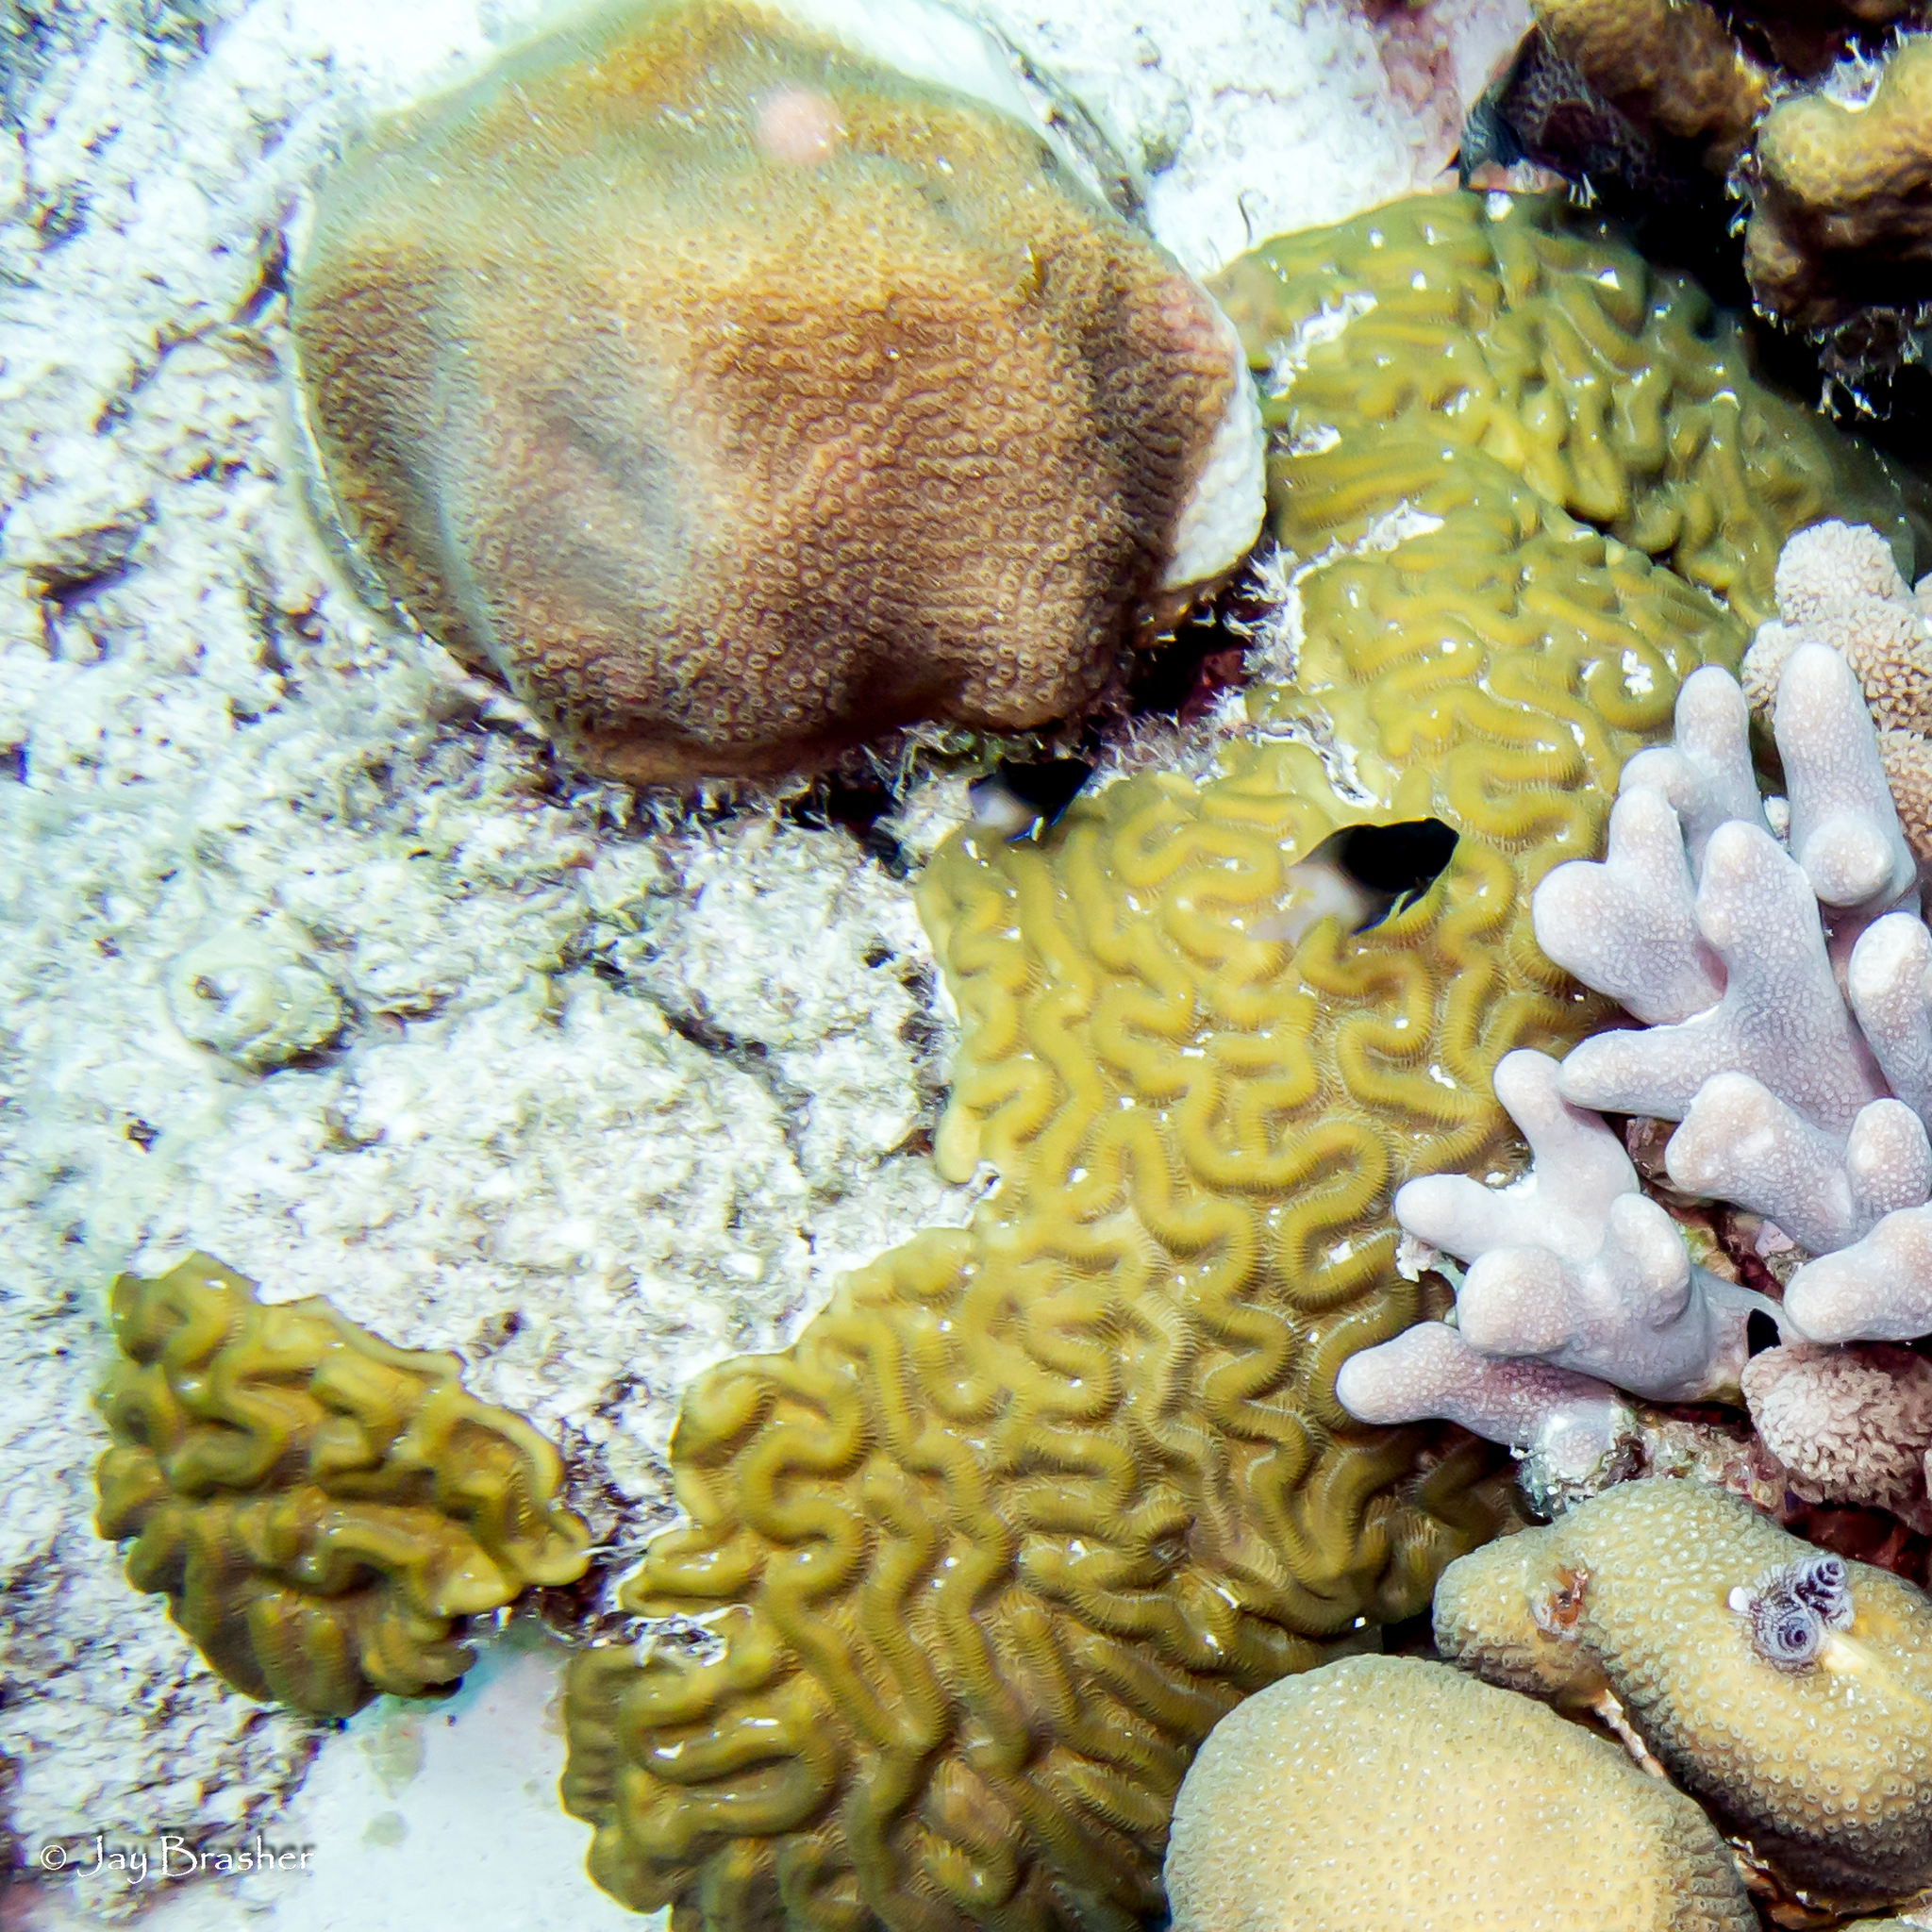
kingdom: Animalia
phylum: Annelida
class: Polychaeta
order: Sabellida
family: Serpulidae
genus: Spirobranchus
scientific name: Spirobranchus giganteus
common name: Christmas tree worm
